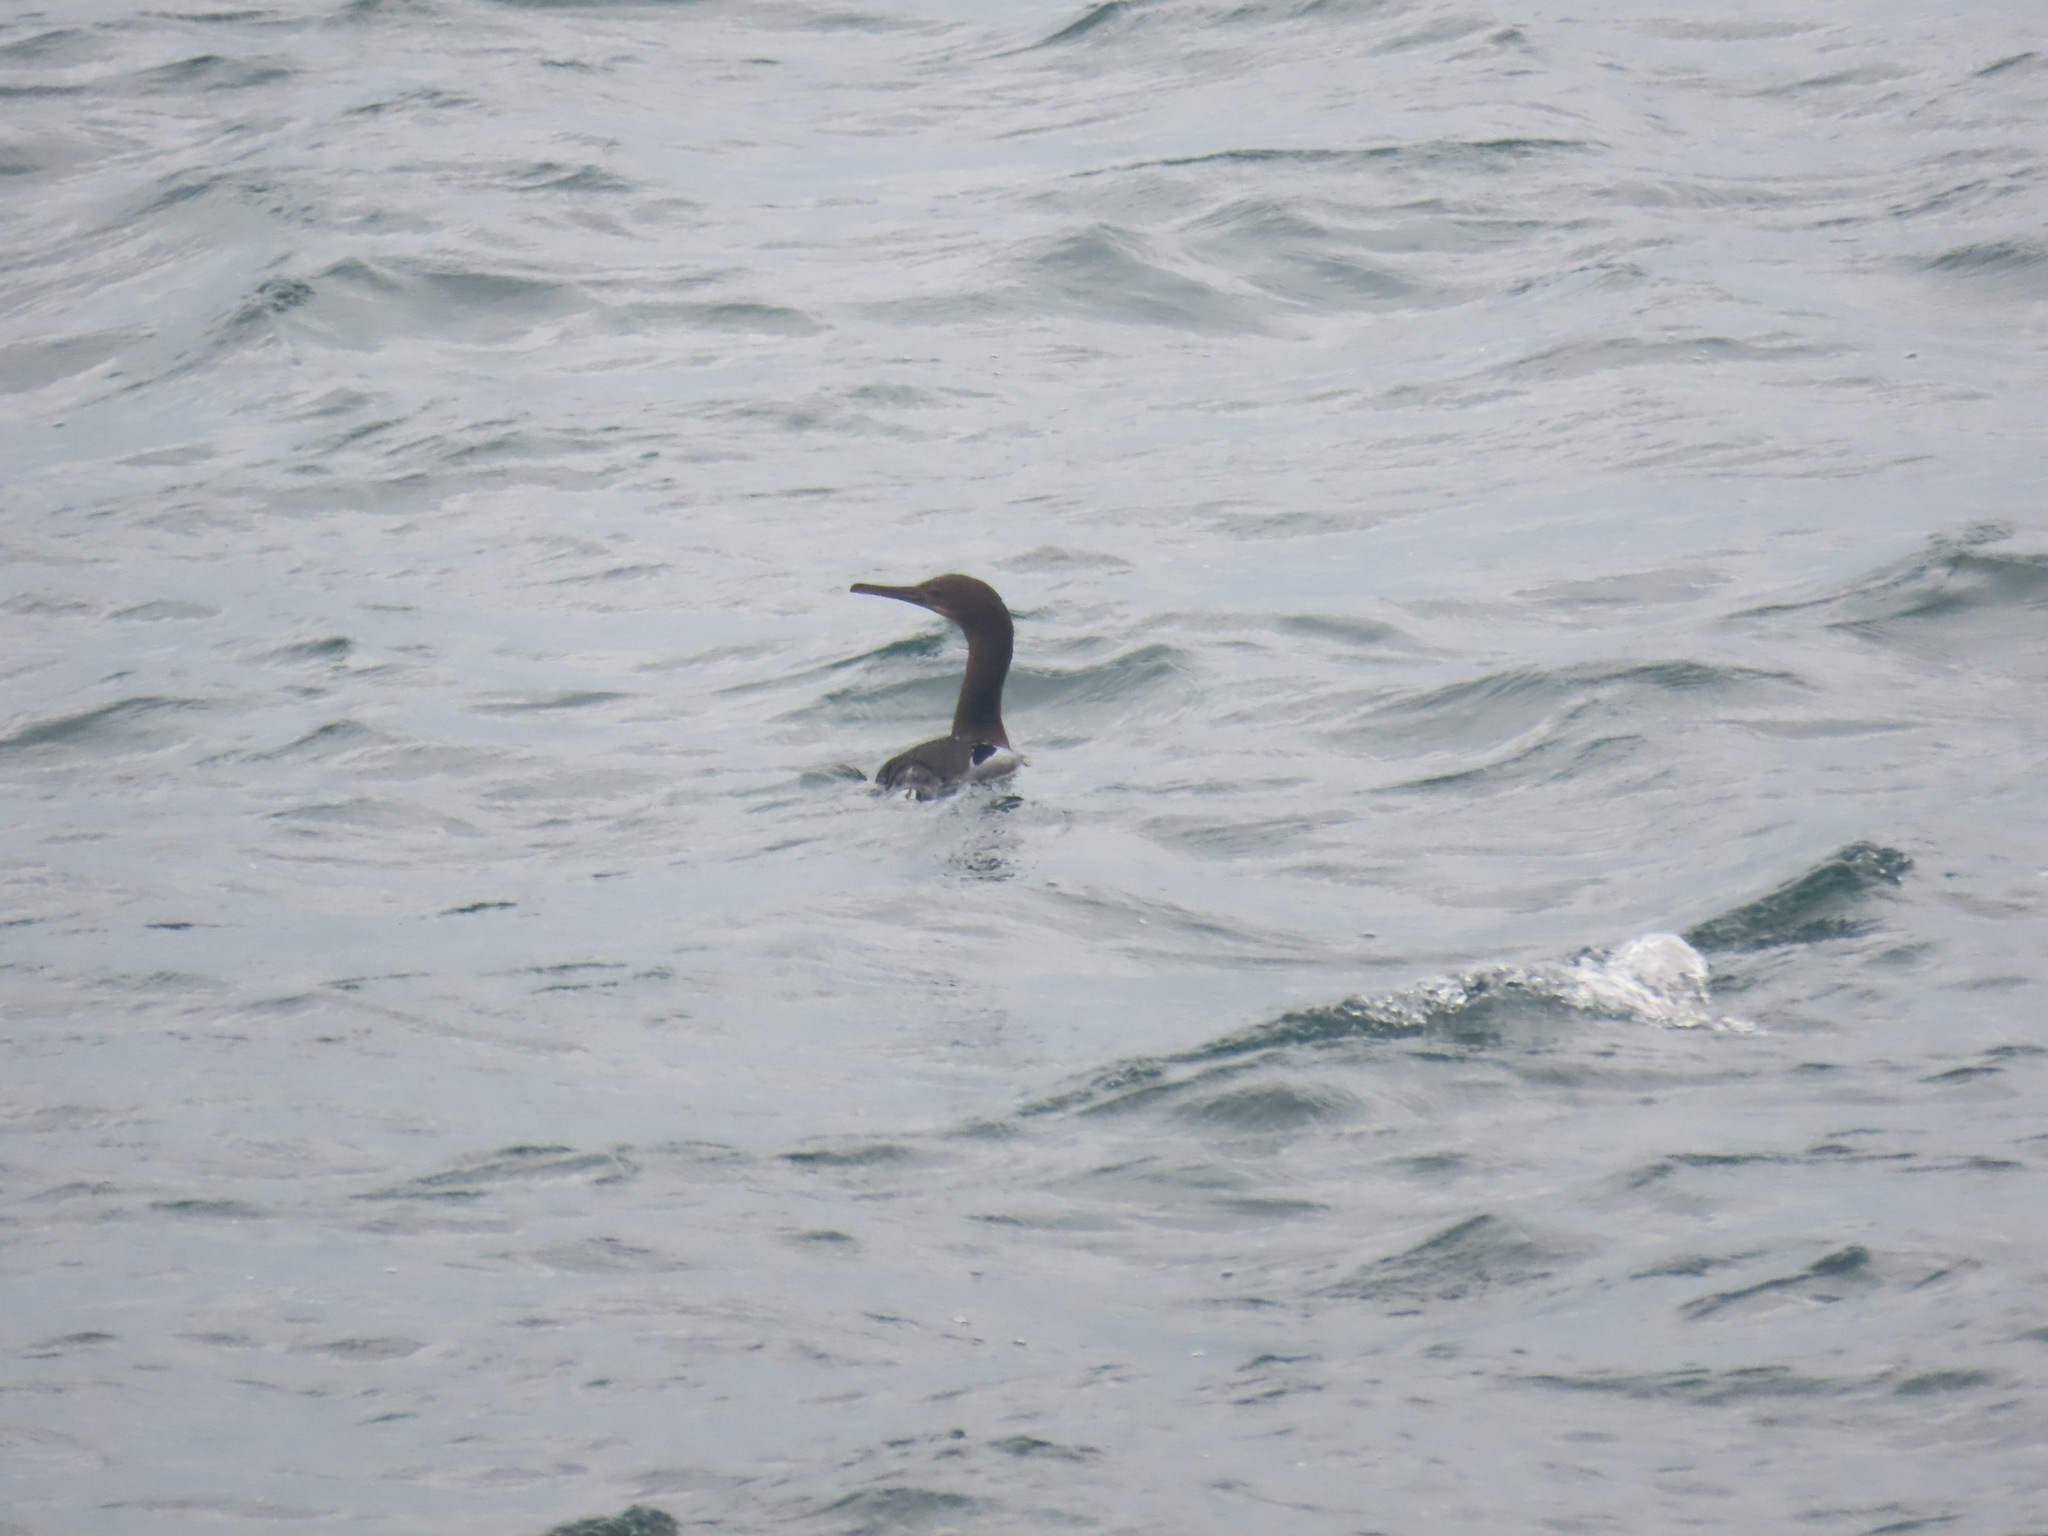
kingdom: Animalia
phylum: Chordata
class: Aves
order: Suliformes
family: Phalacrocoracidae
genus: Urile
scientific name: Urile penicillatus
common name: Brandt's cormorant
